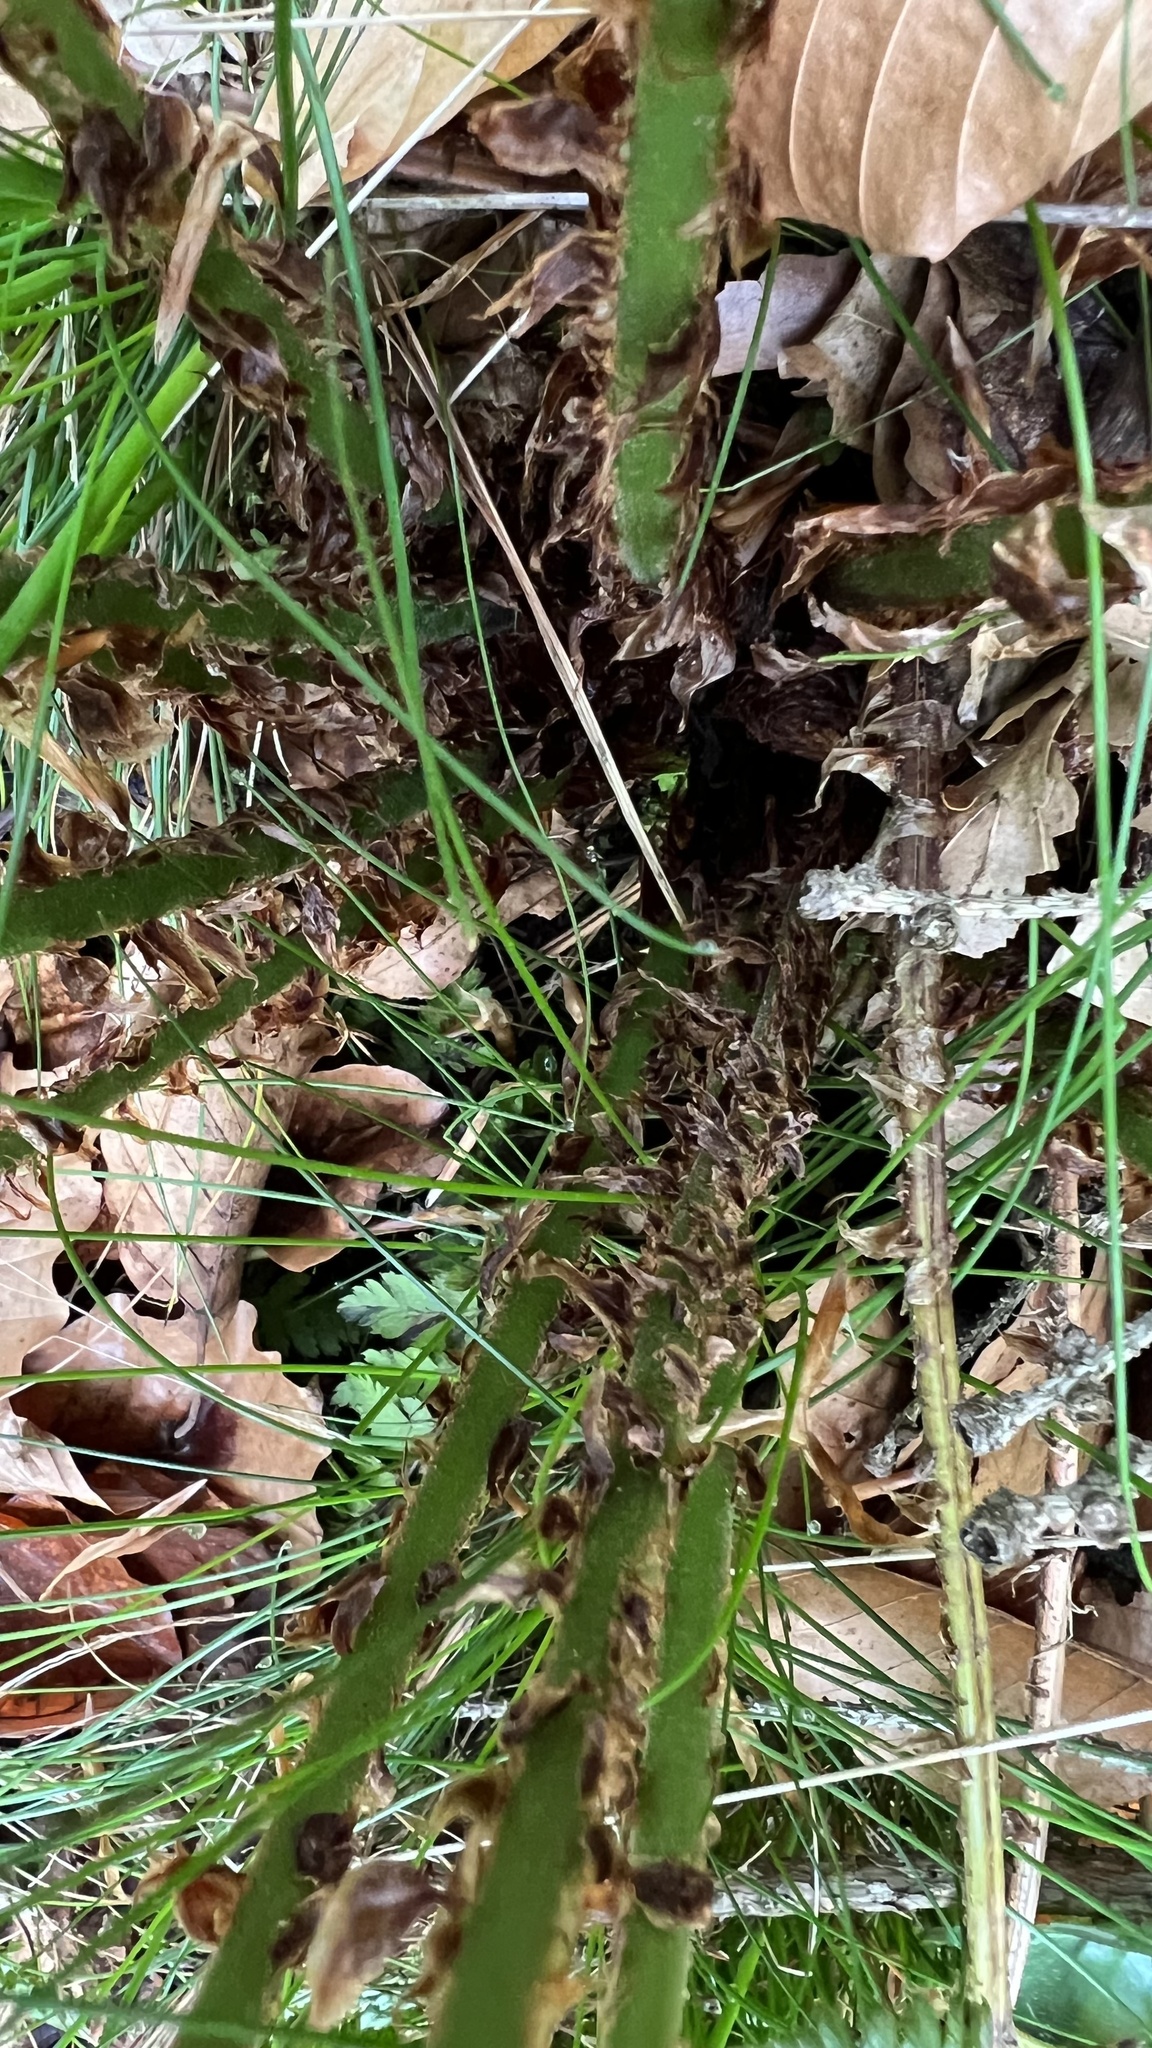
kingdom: Plantae
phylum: Tracheophyta
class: Polypodiopsida
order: Polypodiales
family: Dryopteridaceae
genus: Dryopteris
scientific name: Dryopteris dilatata
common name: Broad buckler-fern
